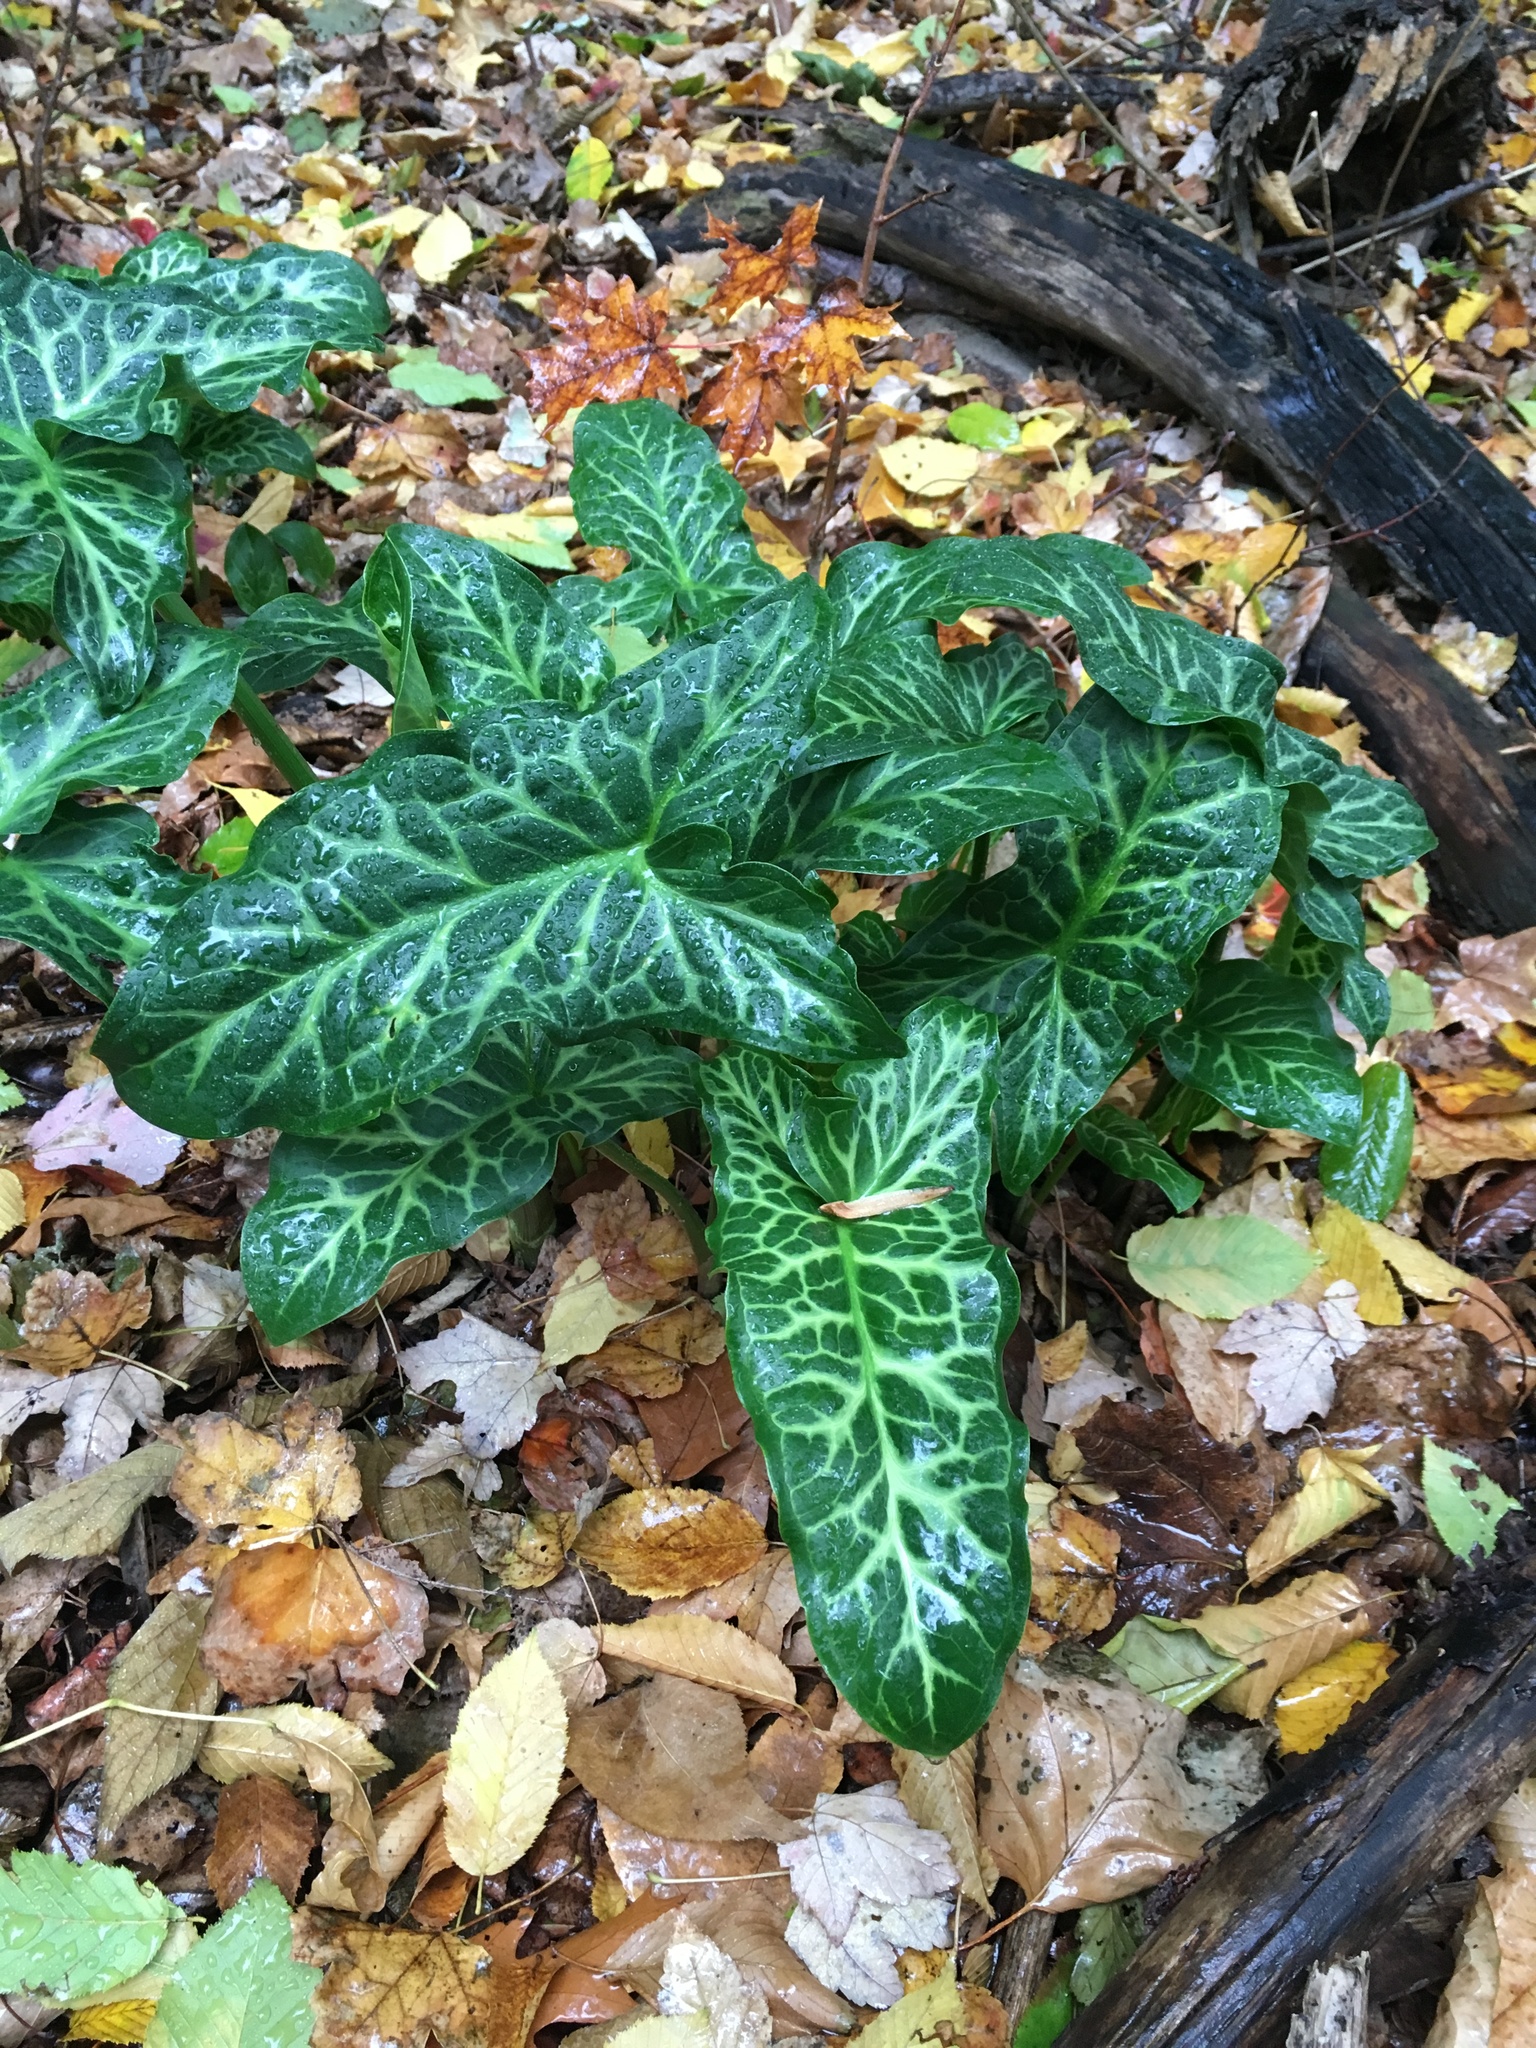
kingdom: Plantae
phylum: Tracheophyta
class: Liliopsida
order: Alismatales
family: Araceae
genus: Arum
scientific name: Arum italicum
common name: Italian lords-and-ladies
